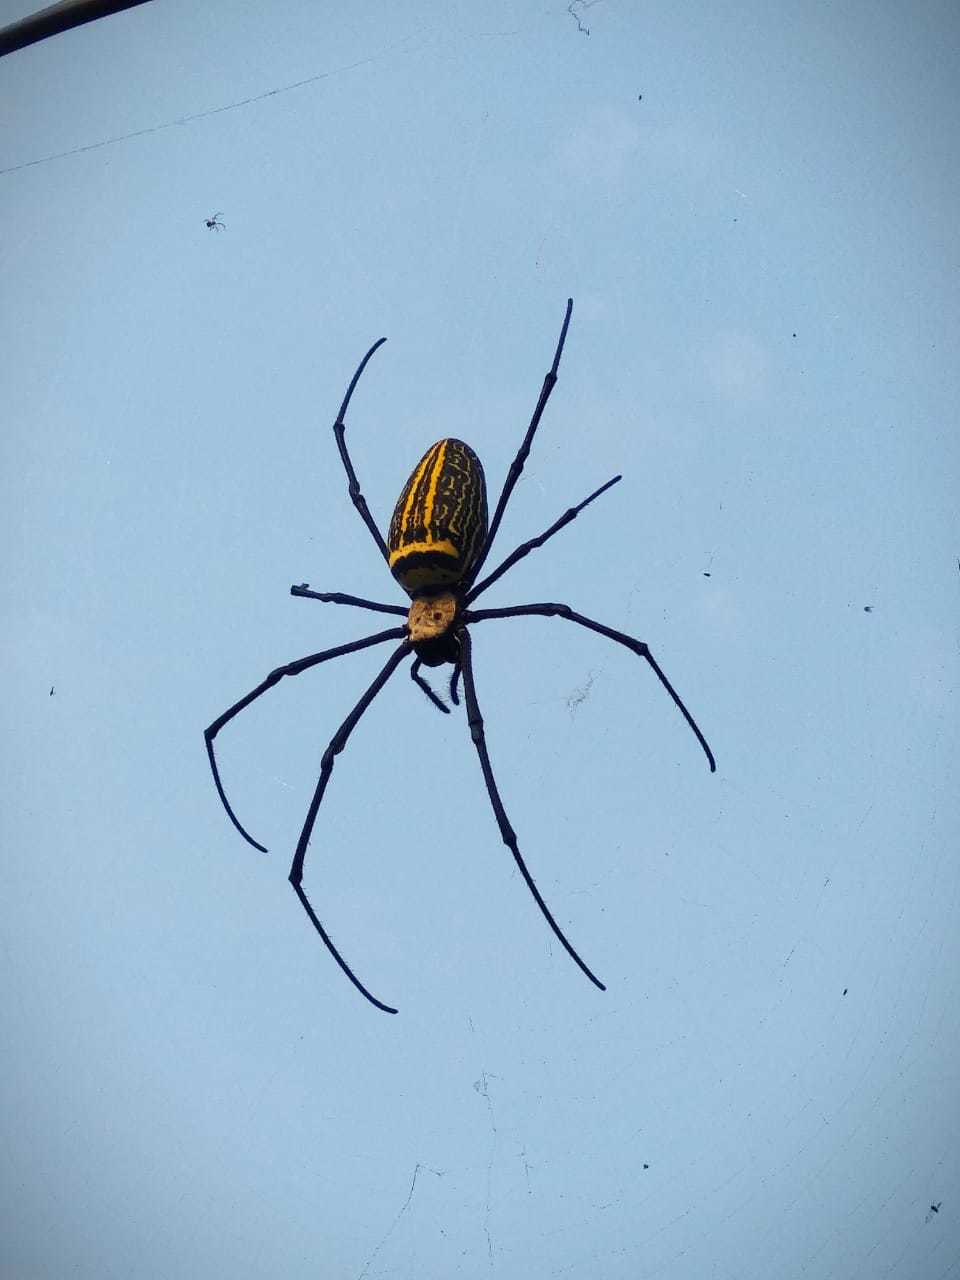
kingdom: Animalia
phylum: Arthropoda
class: Arachnida
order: Araneae
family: Araneidae
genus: Nephila
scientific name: Nephila pilipes
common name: Giant golden orb weaver
